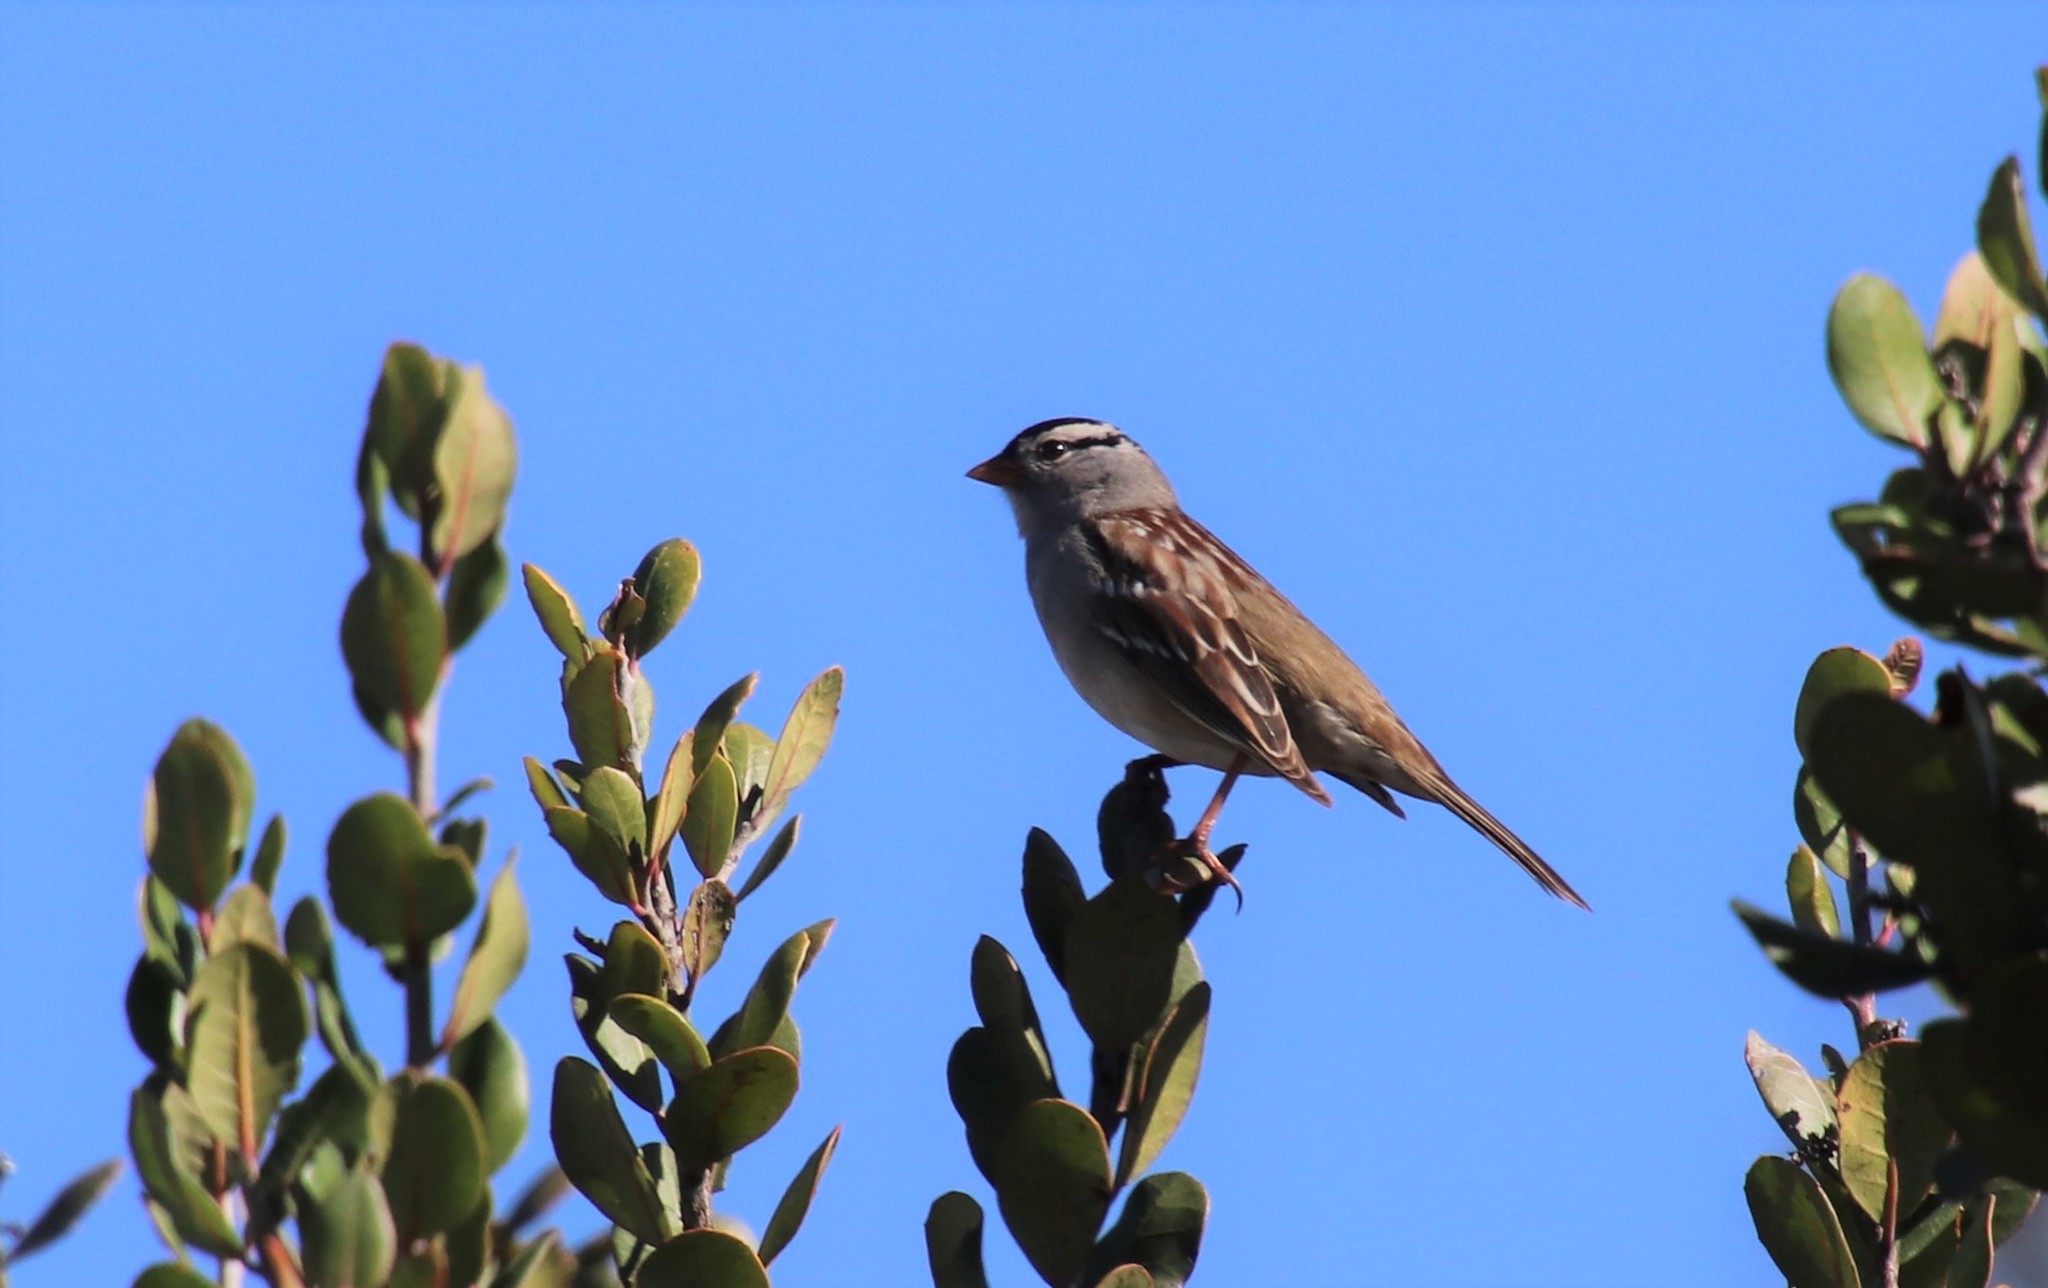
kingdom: Animalia
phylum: Chordata
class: Aves
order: Passeriformes
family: Passerellidae
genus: Zonotrichia
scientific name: Zonotrichia leucophrys
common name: White-crowned sparrow
